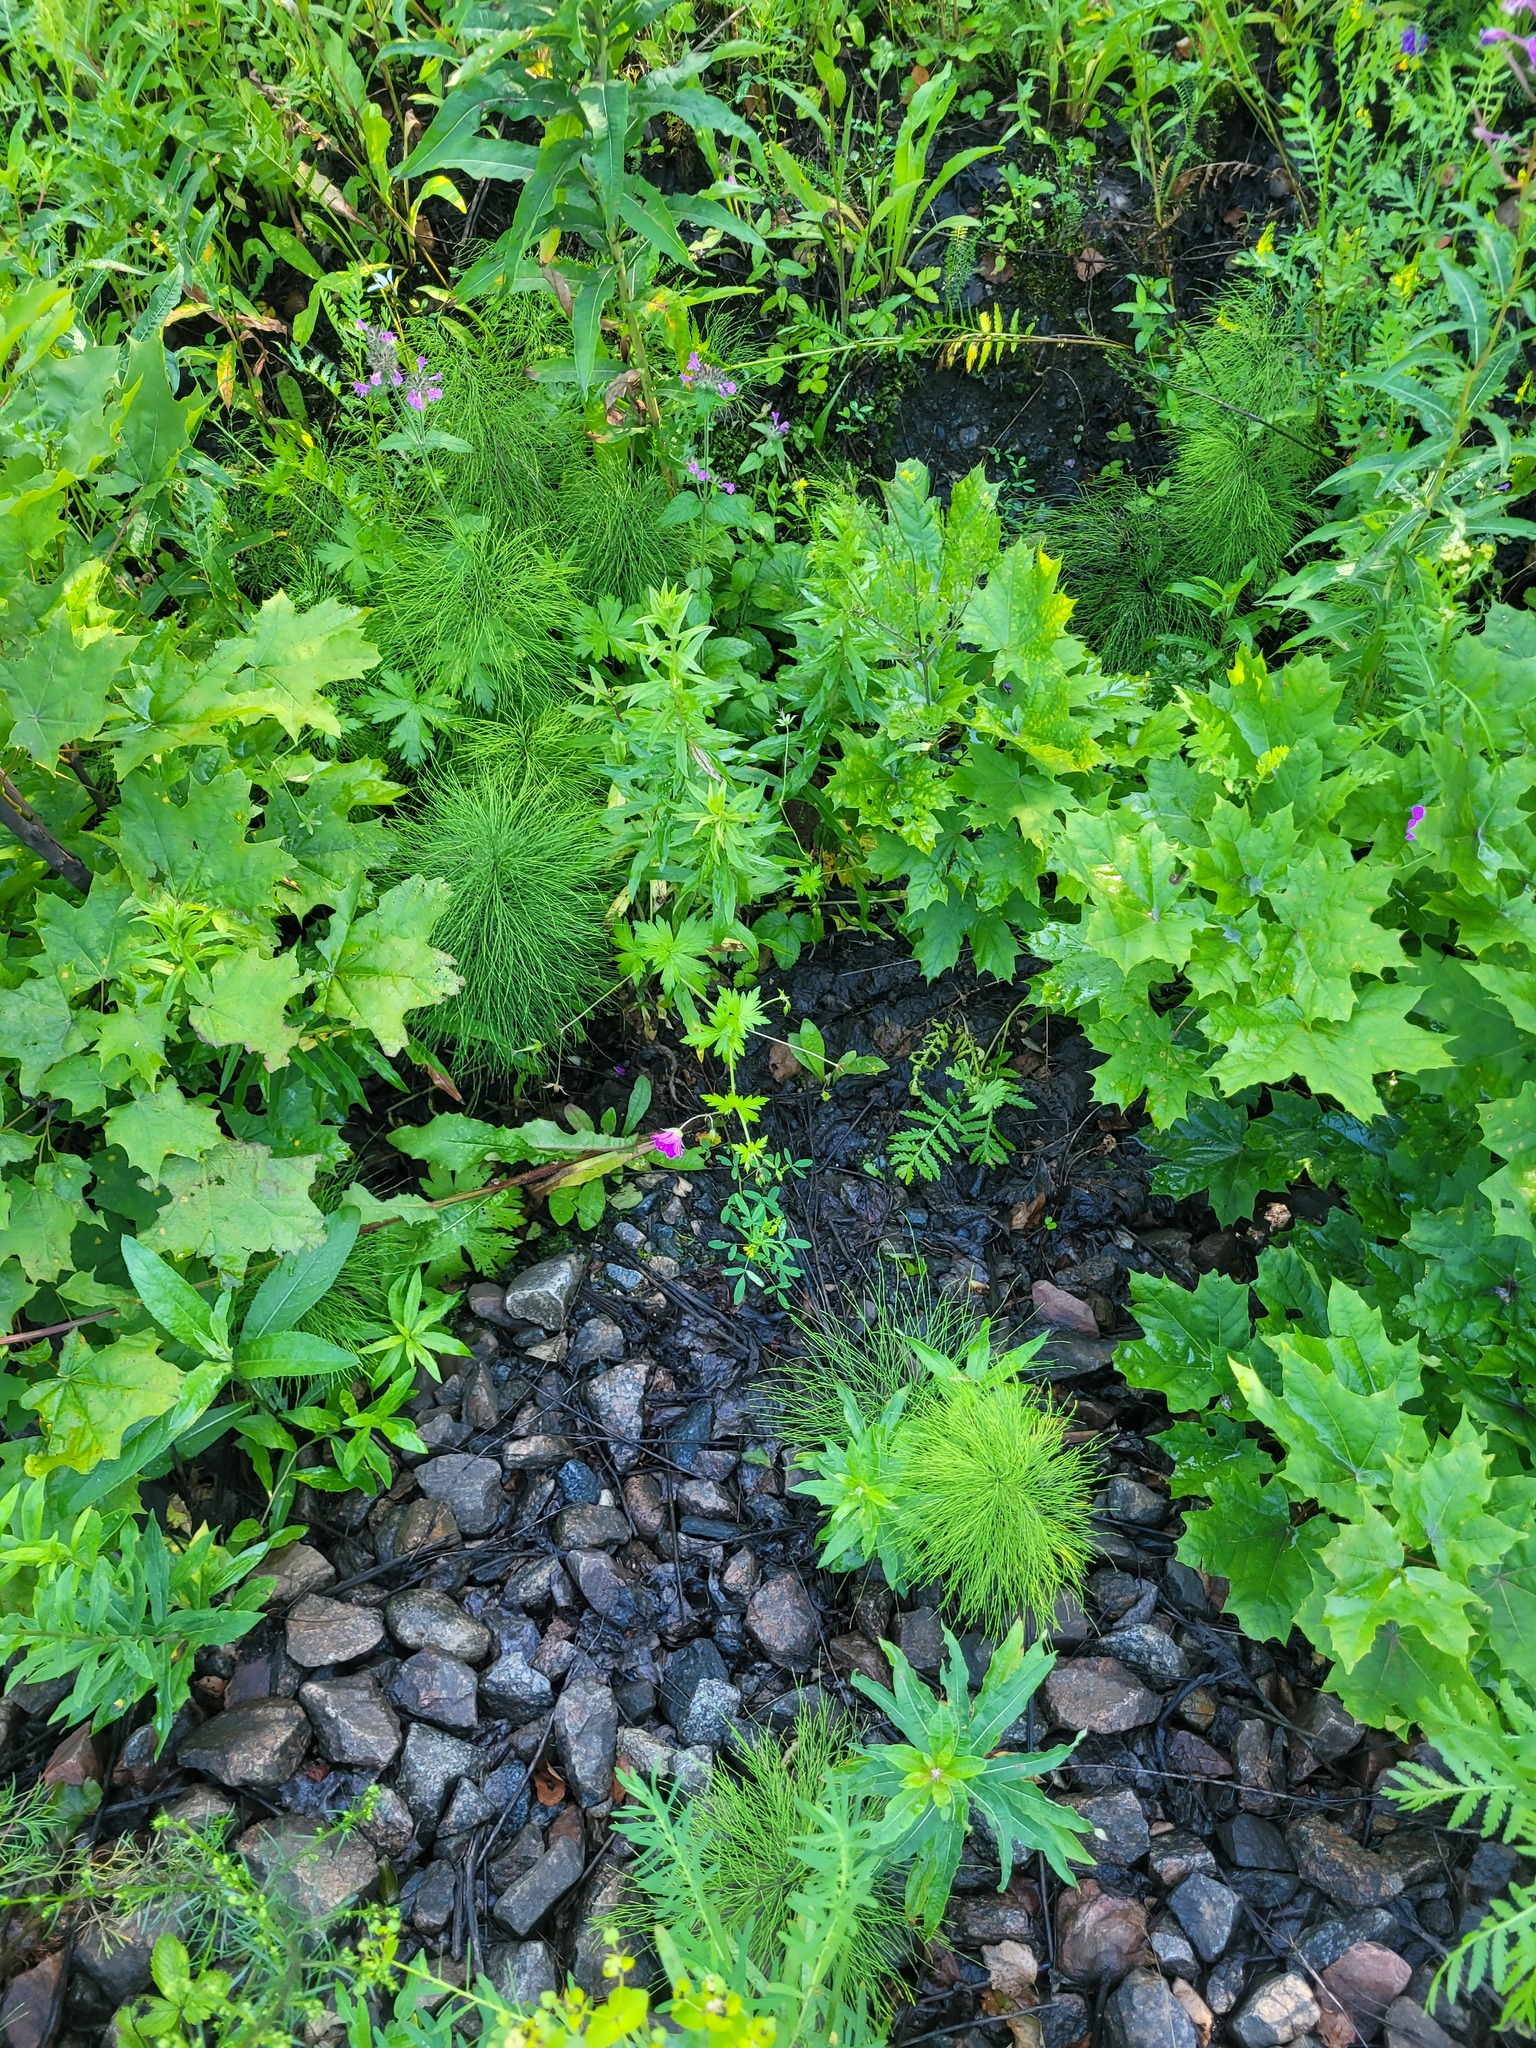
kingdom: Plantae
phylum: Tracheophyta
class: Magnoliopsida
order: Geraniales
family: Geraniaceae
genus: Geranium
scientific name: Geranium palustre
